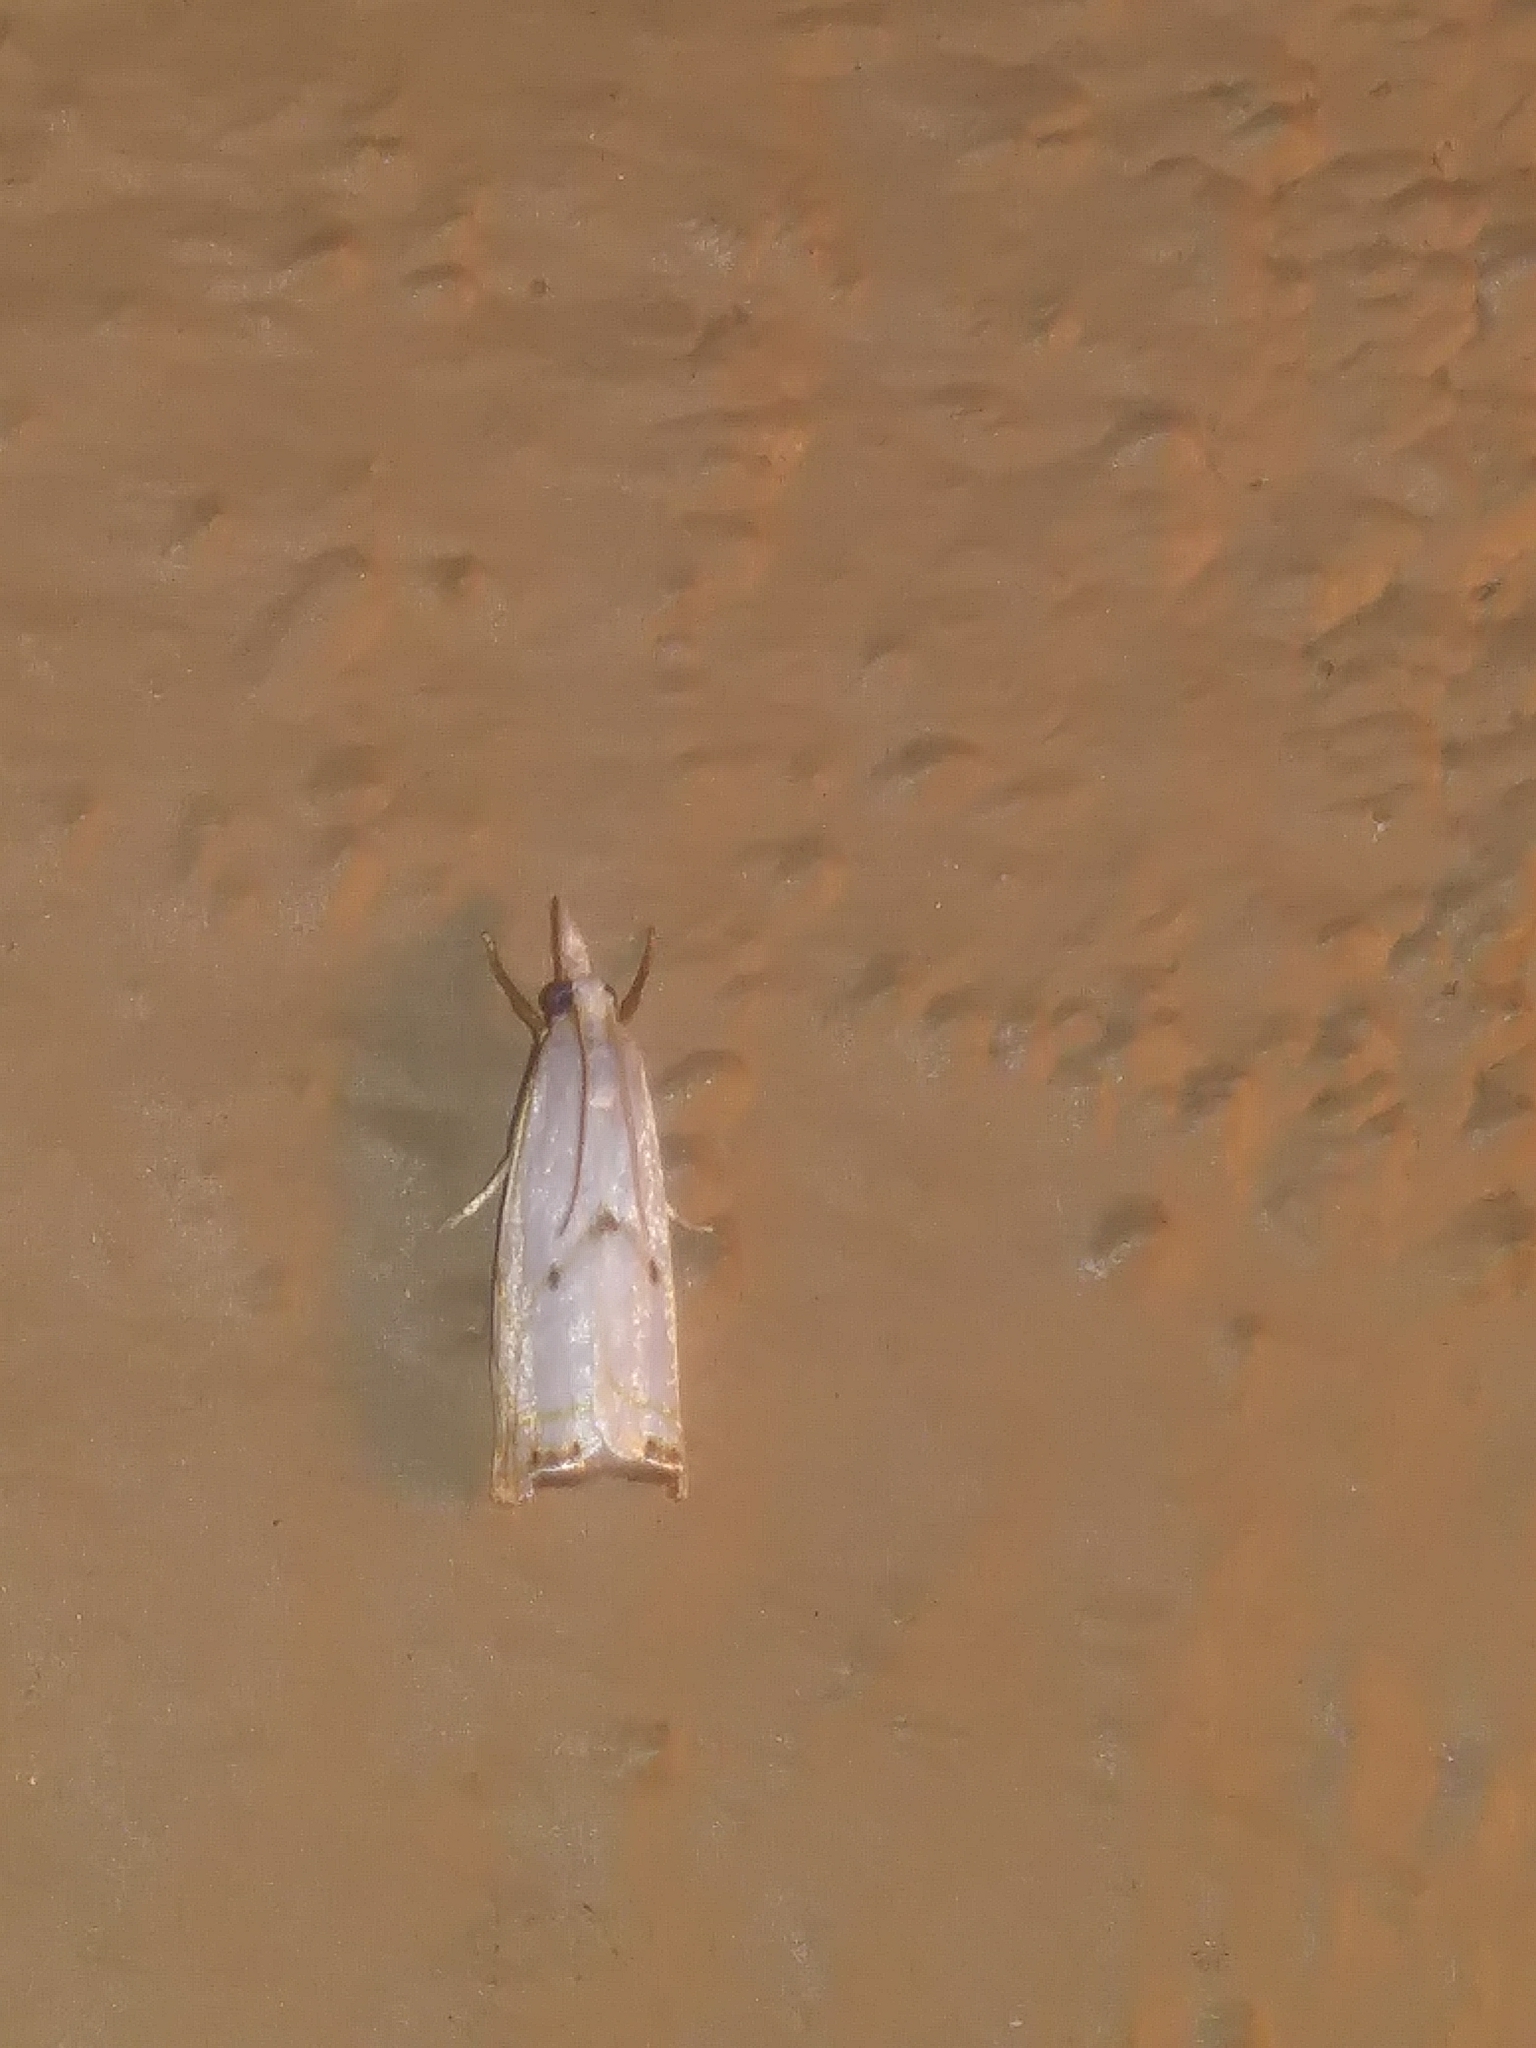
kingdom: Animalia
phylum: Arthropoda
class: Insecta
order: Lepidoptera
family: Crambidae
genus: Microcrambus
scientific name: Microcrambus biguttellus
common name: Gold-stripe grass-veneer moth
